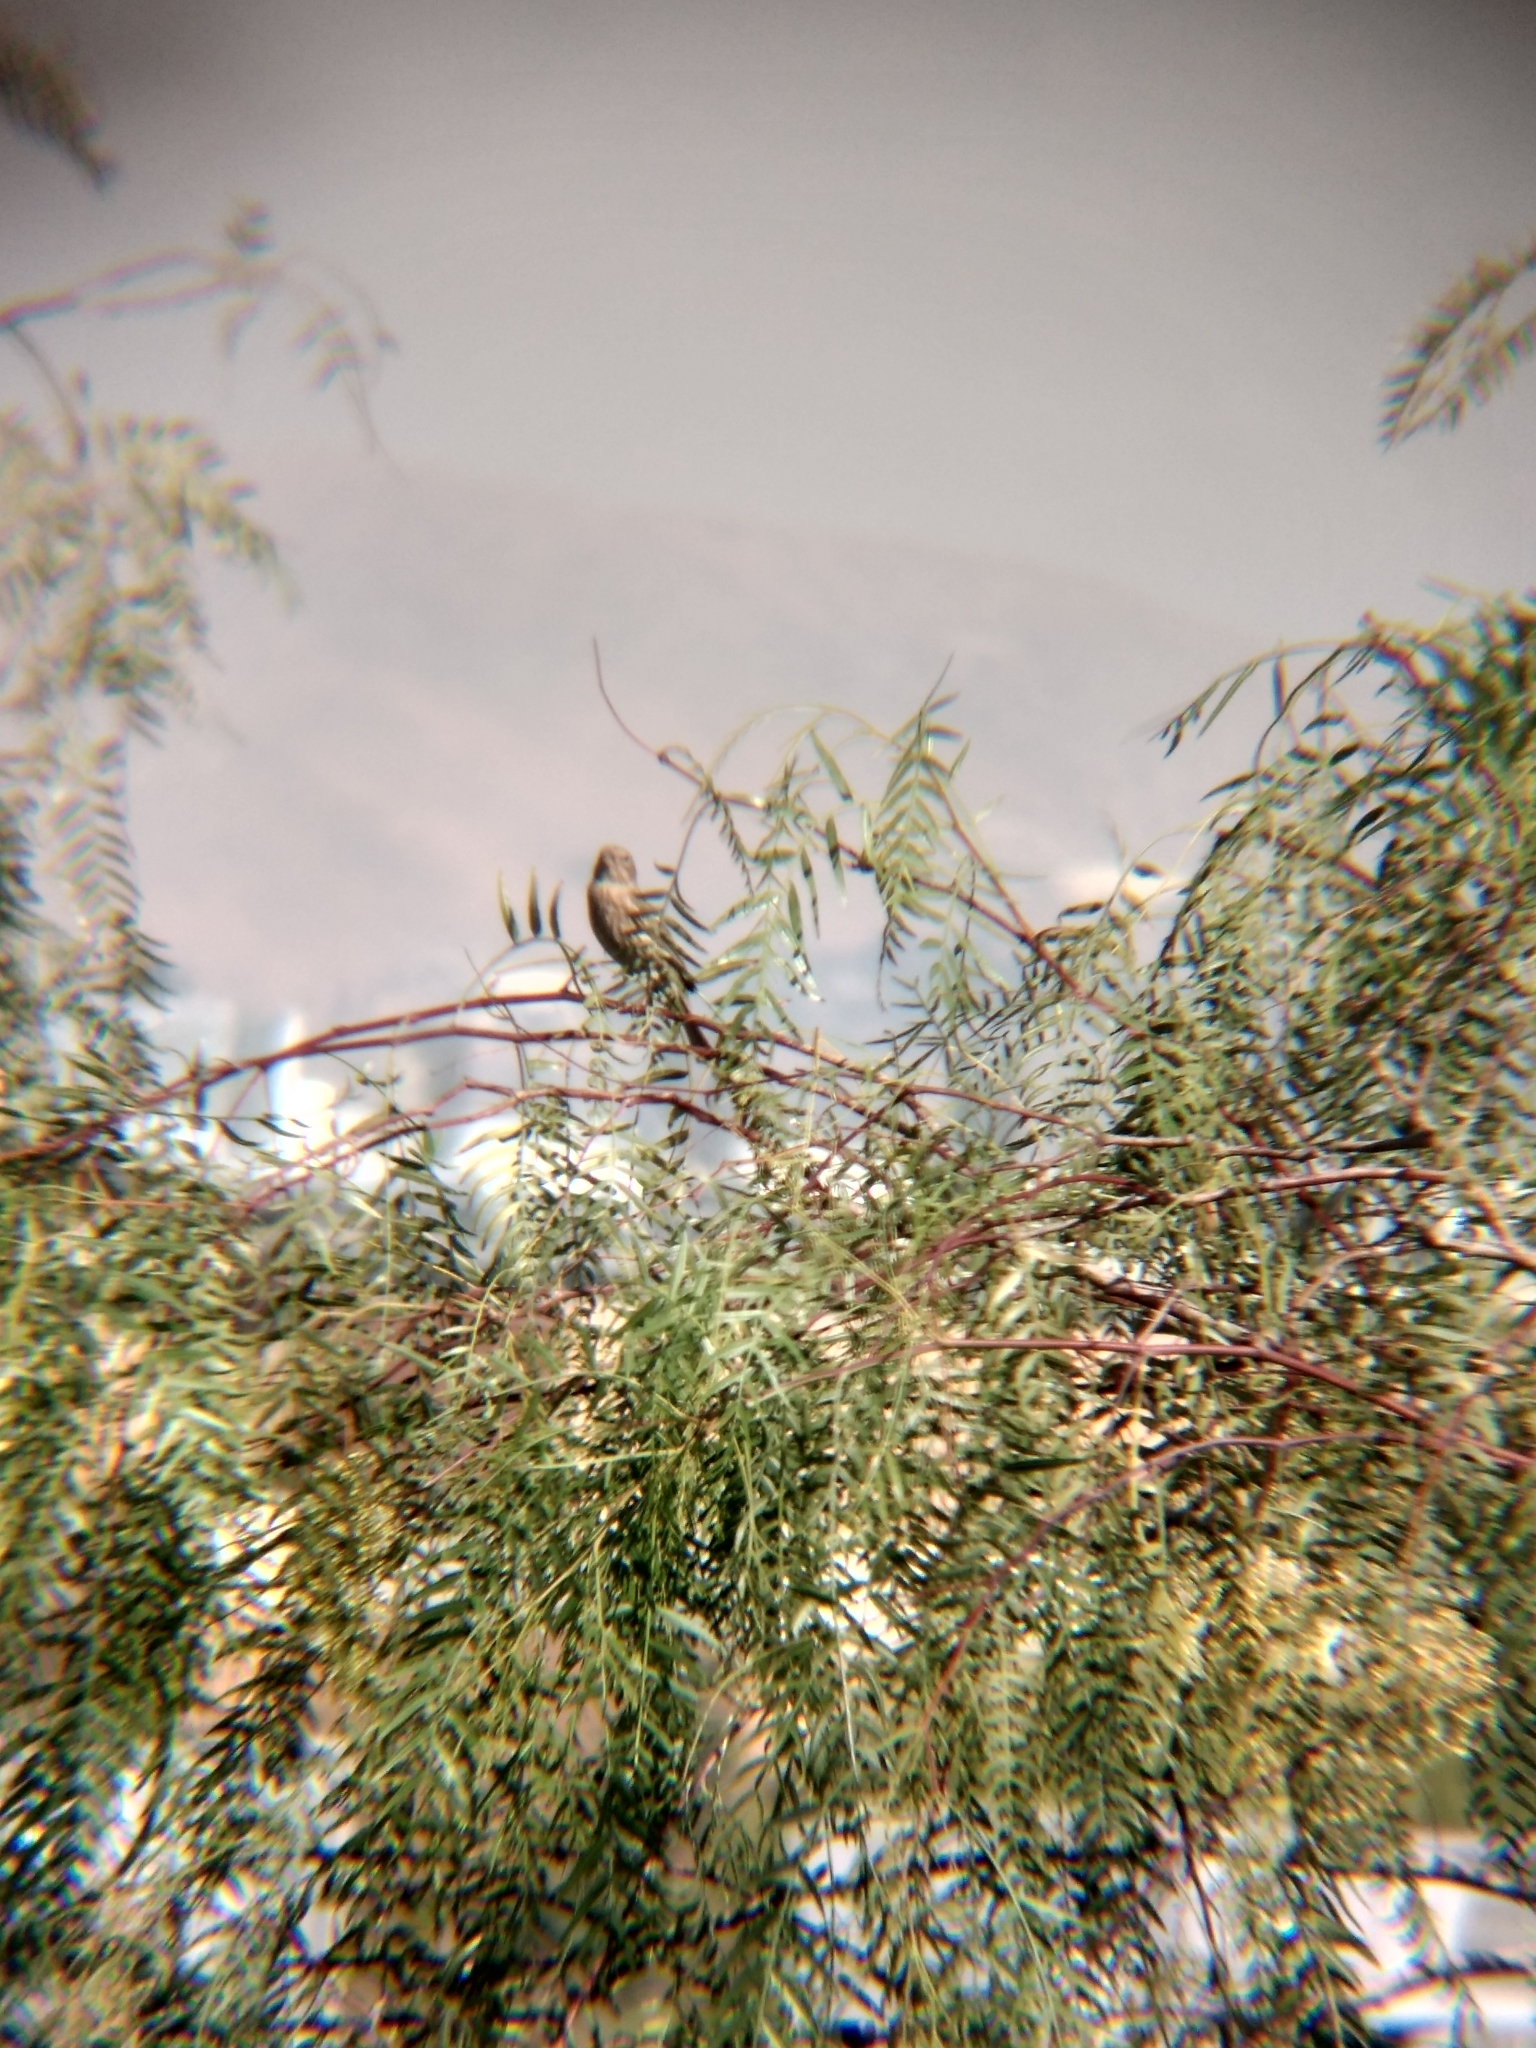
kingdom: Animalia
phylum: Chordata
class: Aves
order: Passeriformes
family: Fringillidae
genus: Haemorhous
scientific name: Haemorhous mexicanus
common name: House finch
